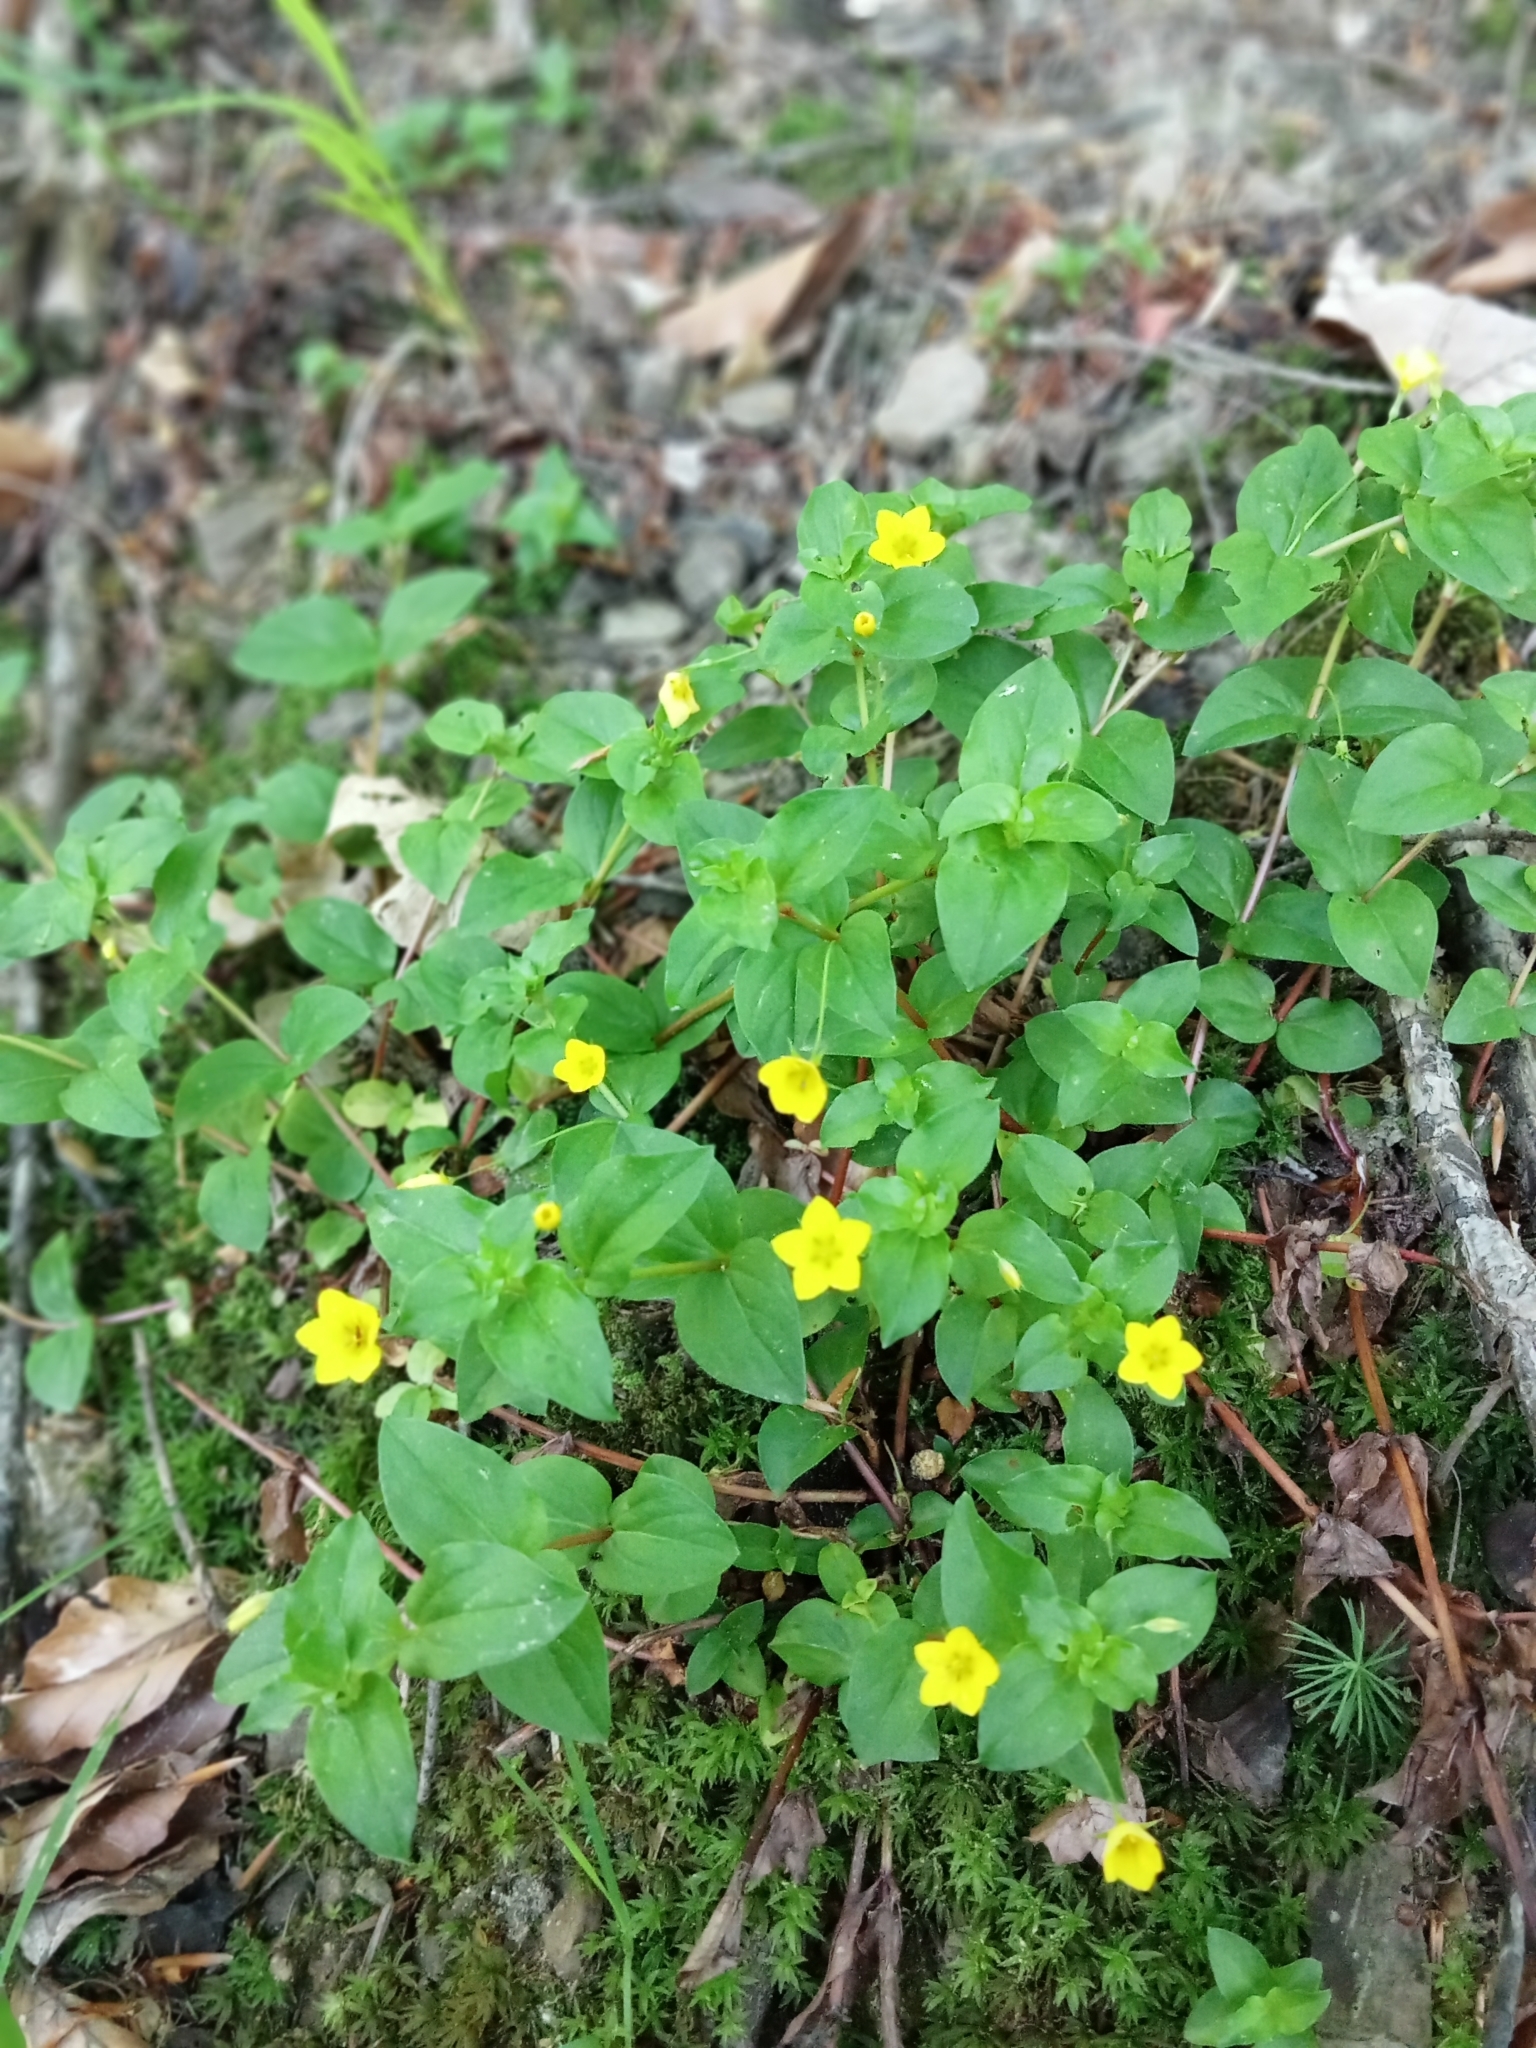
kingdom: Plantae
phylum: Tracheophyta
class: Magnoliopsida
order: Ericales
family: Primulaceae
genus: Lysimachia
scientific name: Lysimachia nemorum
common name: Yellow pimpernel
